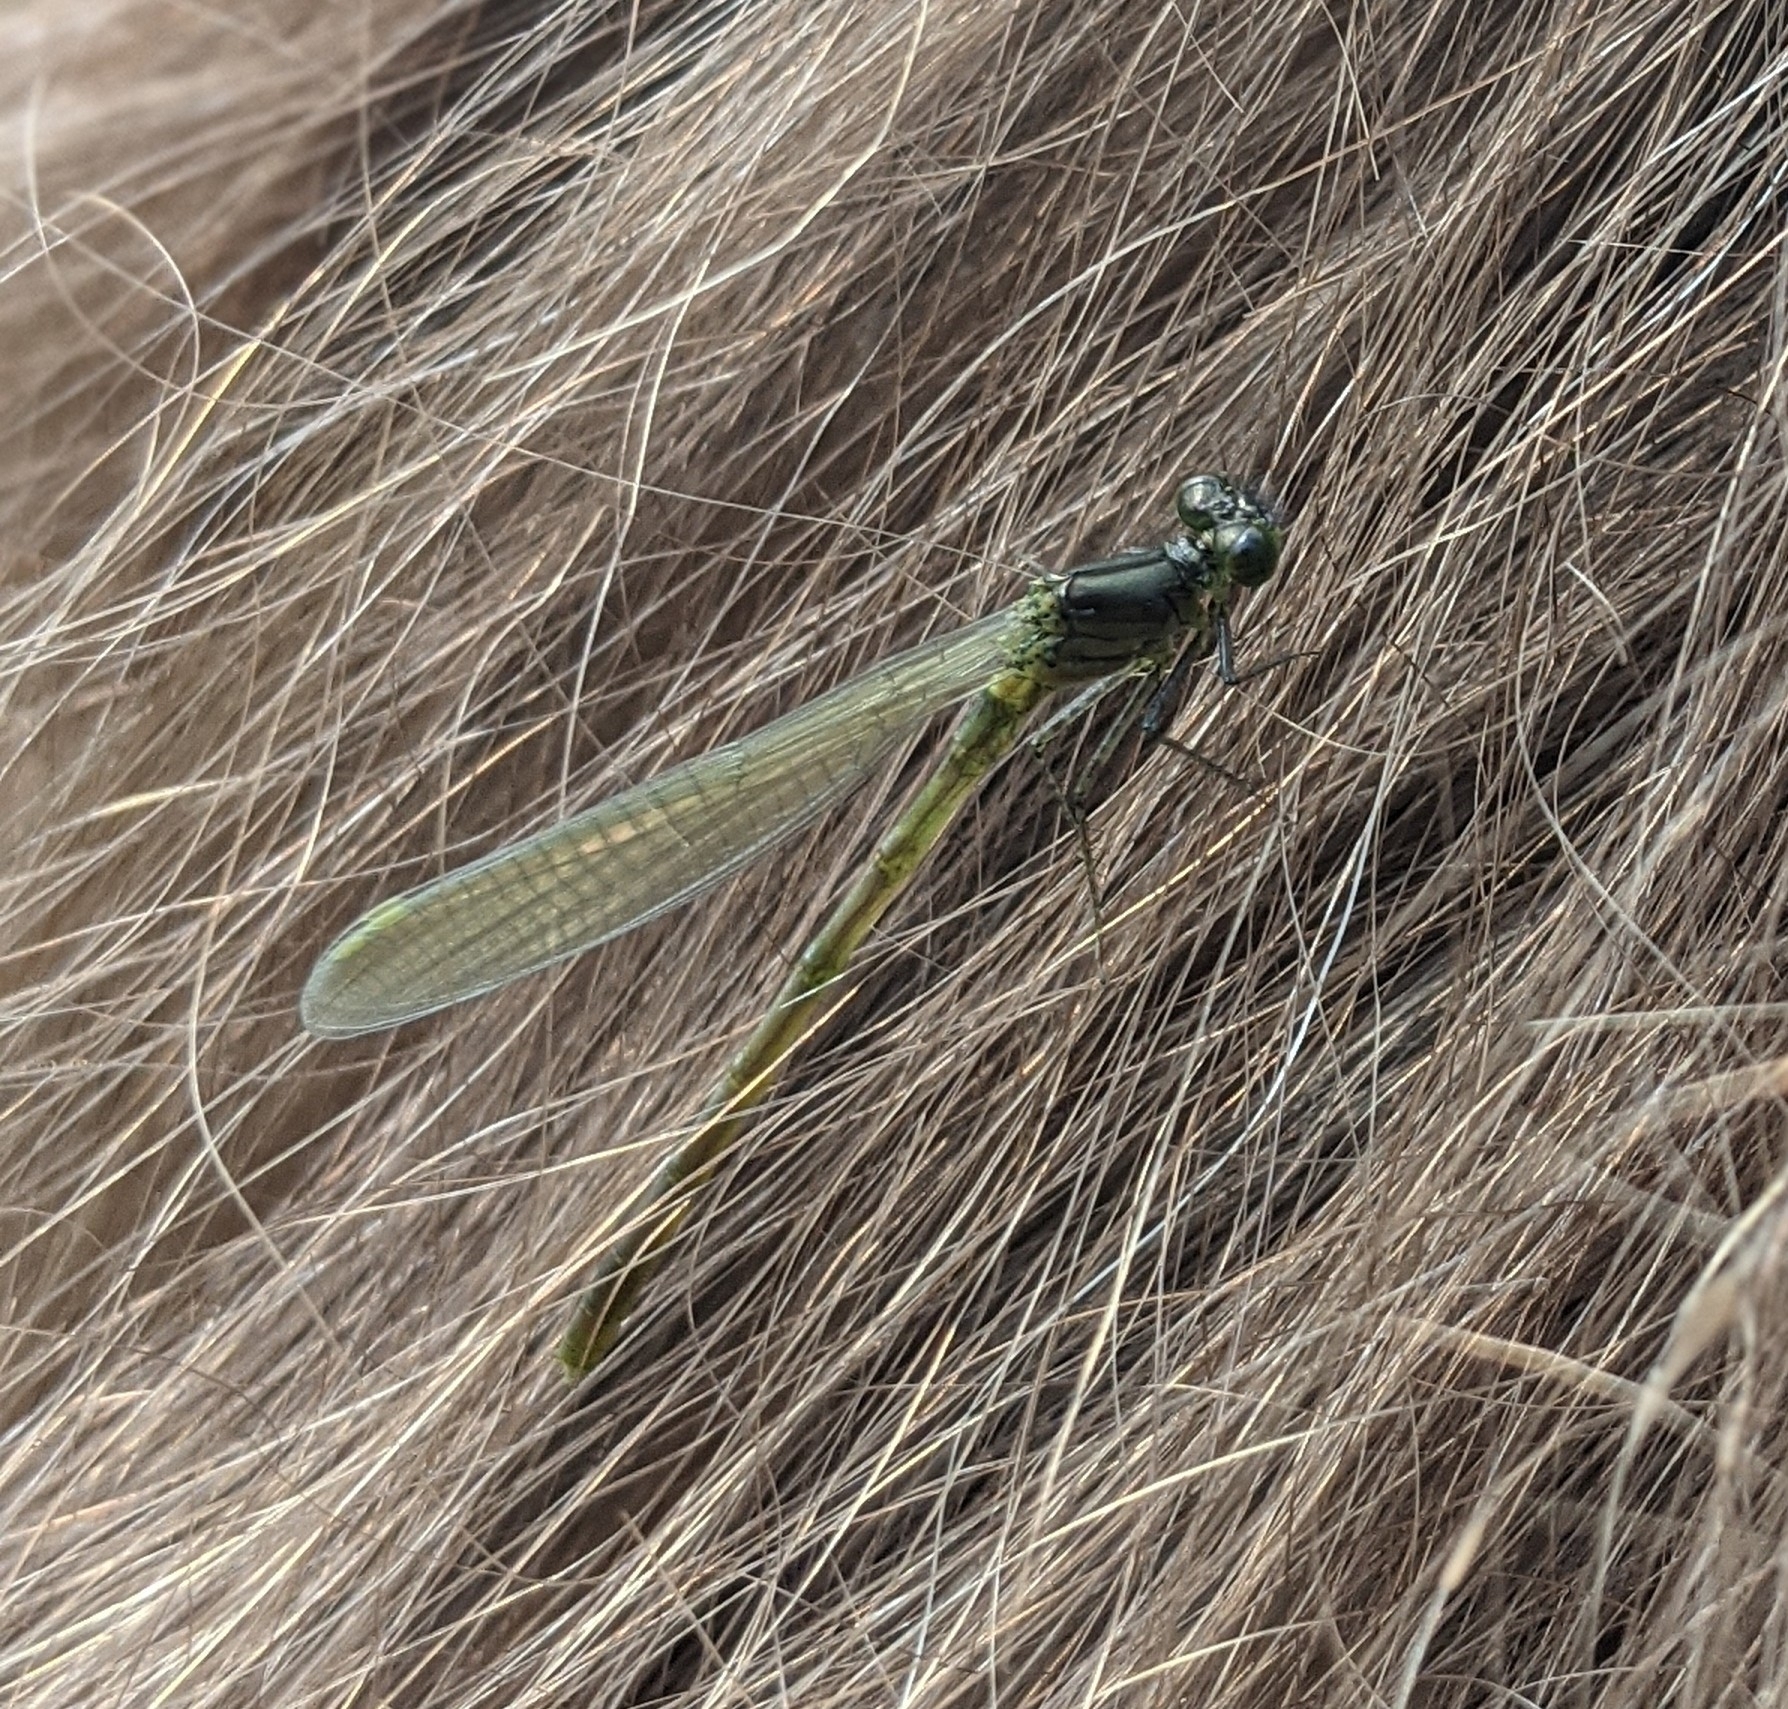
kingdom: Animalia
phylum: Arthropoda
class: Insecta
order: Odonata
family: Coenagrionidae
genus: Erythromma
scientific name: Erythromma najas
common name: Red-eyed damselfly
